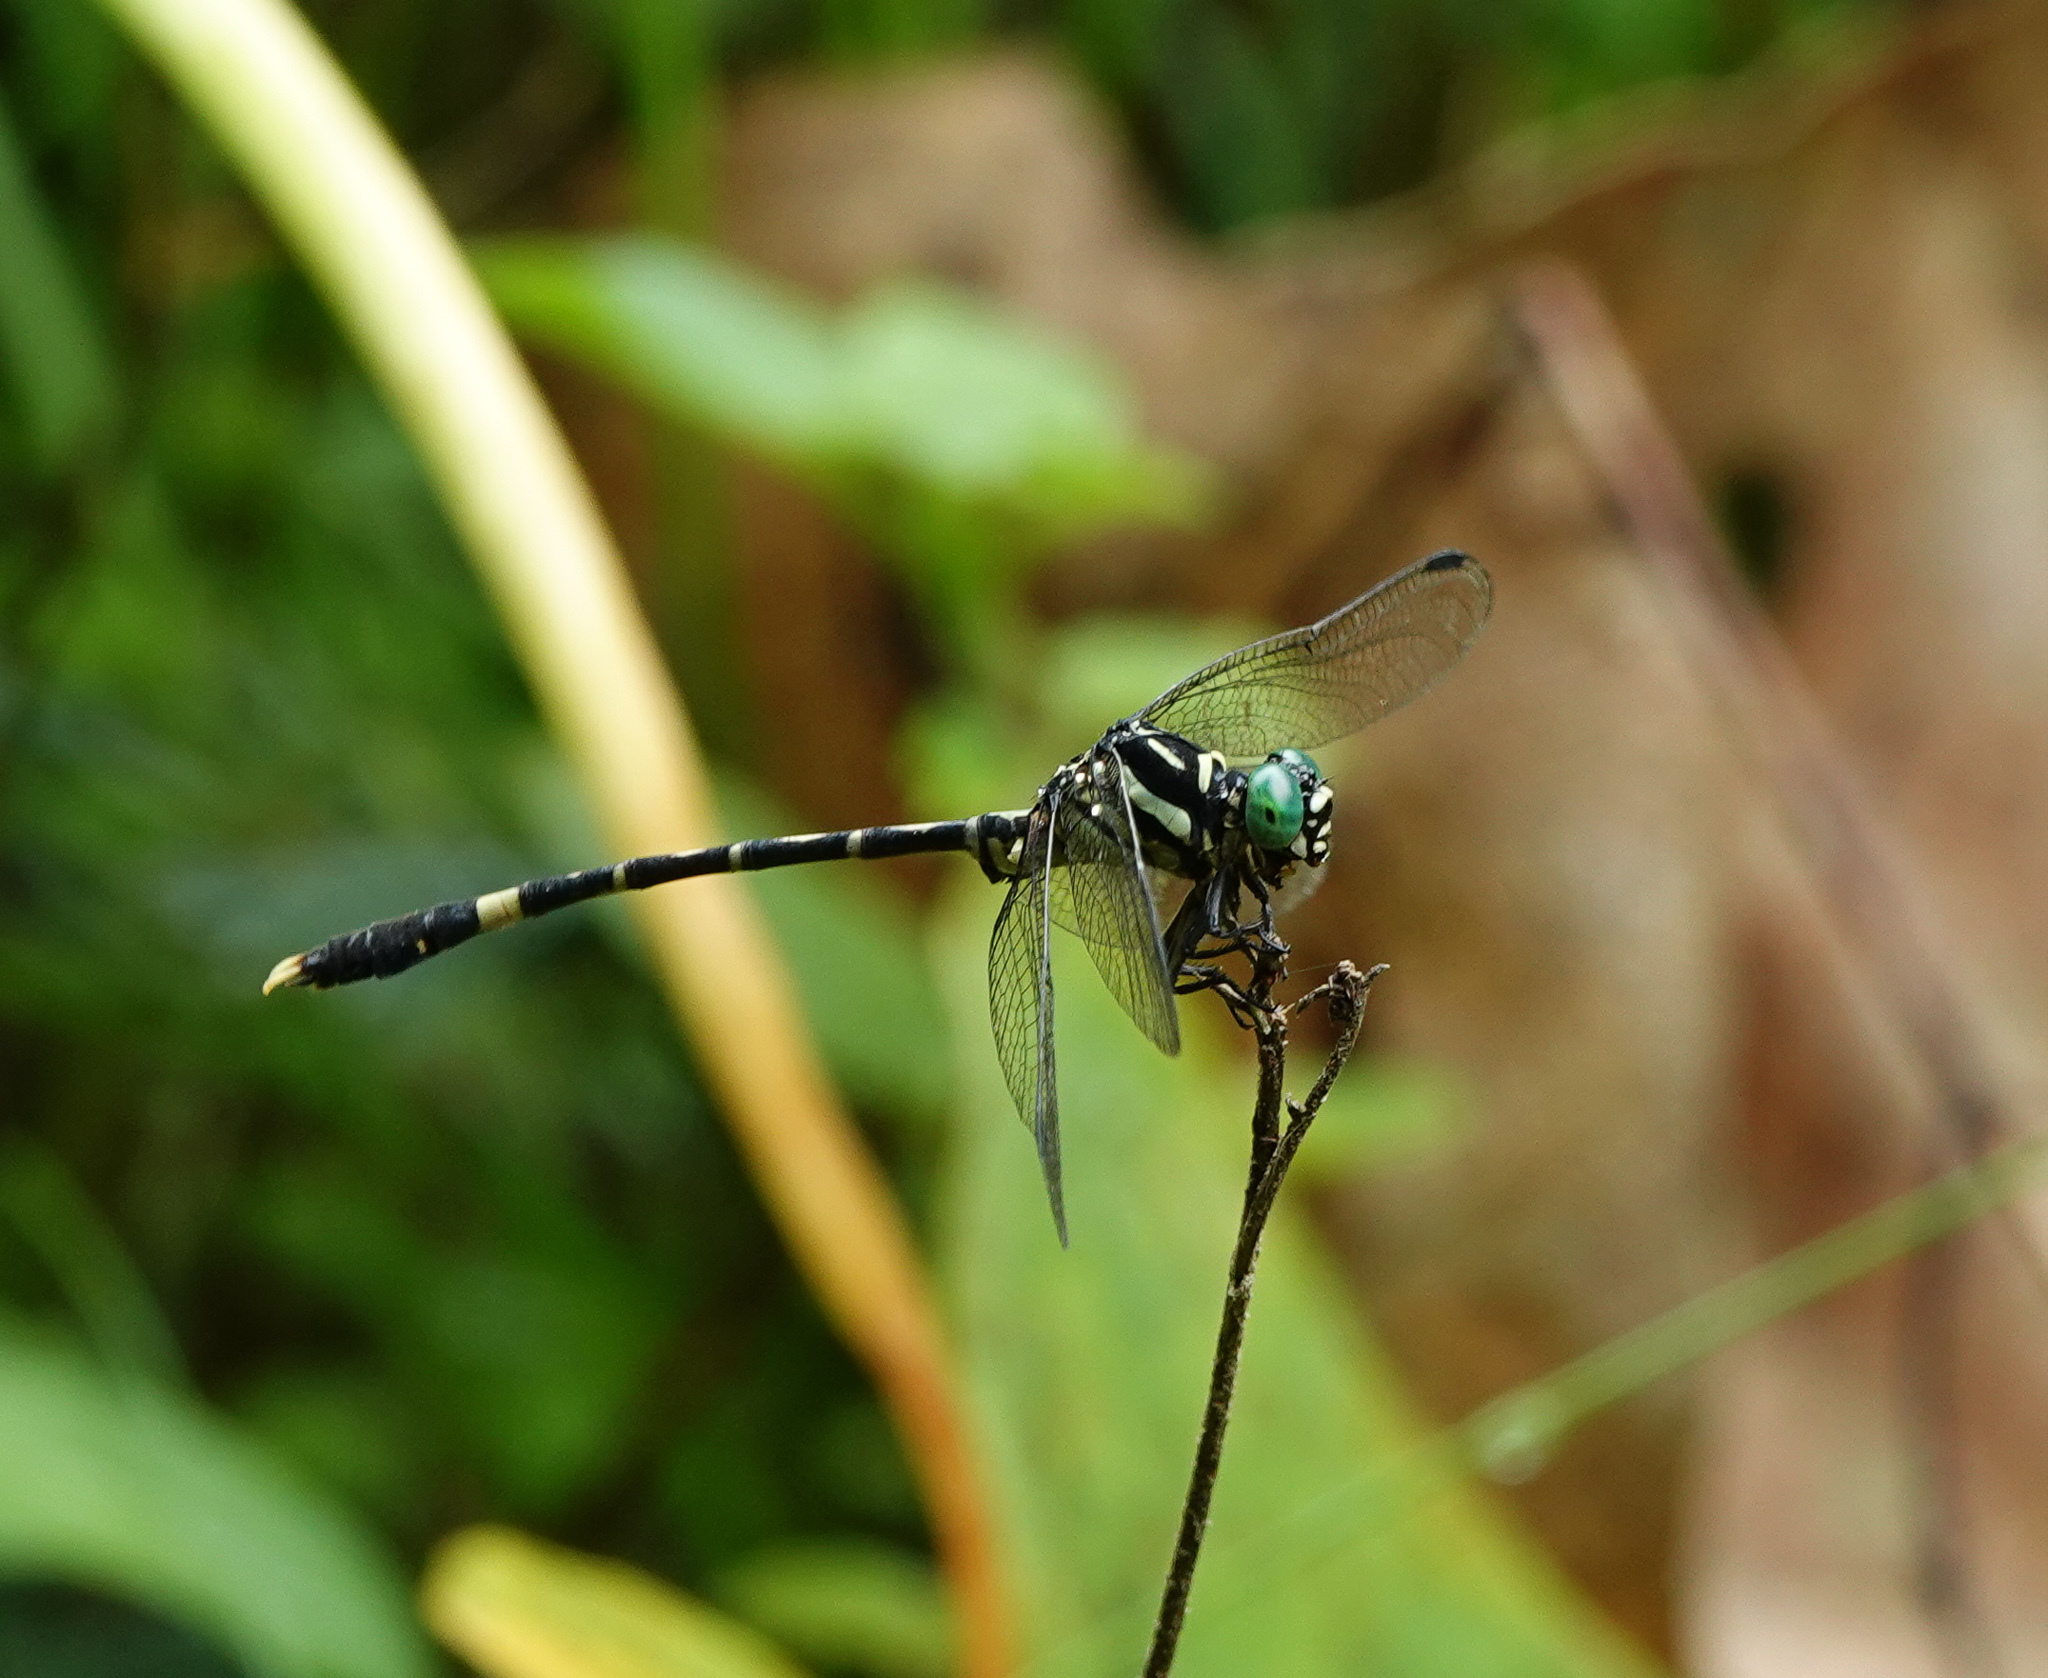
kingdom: Animalia
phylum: Arthropoda
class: Insecta
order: Odonata
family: Gomphidae
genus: Orientogomphus
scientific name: Orientogomphus indicus
